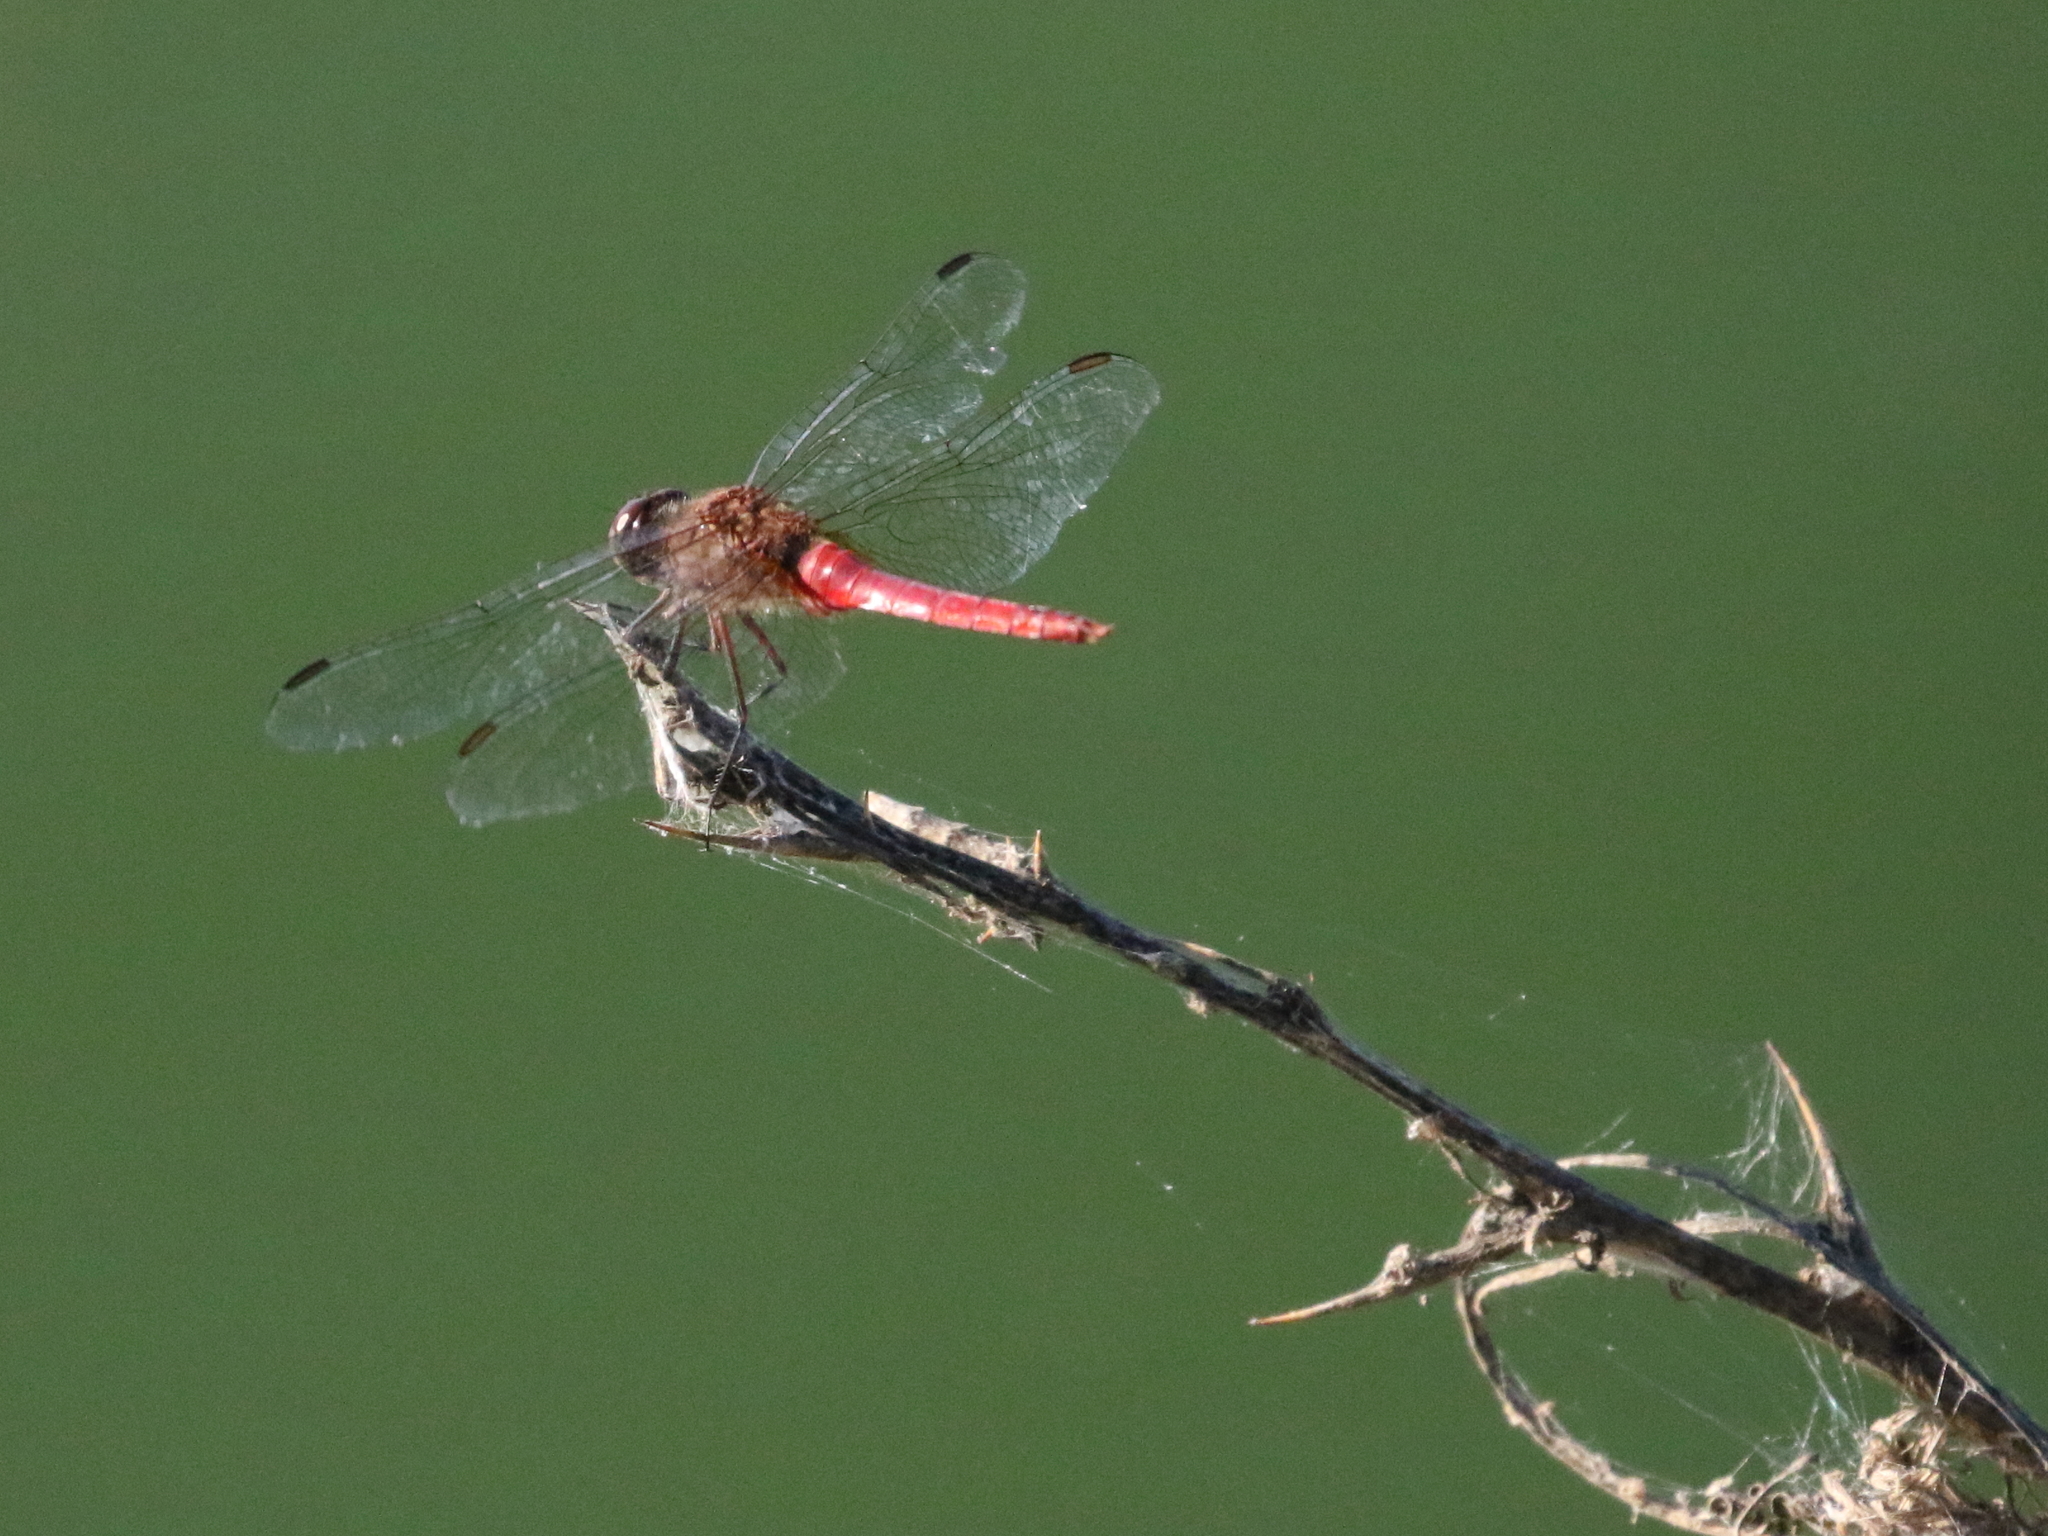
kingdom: Animalia
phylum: Arthropoda
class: Insecta
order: Odonata
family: Libellulidae
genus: Brachymesia
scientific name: Brachymesia furcata
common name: Red-taled pennant
